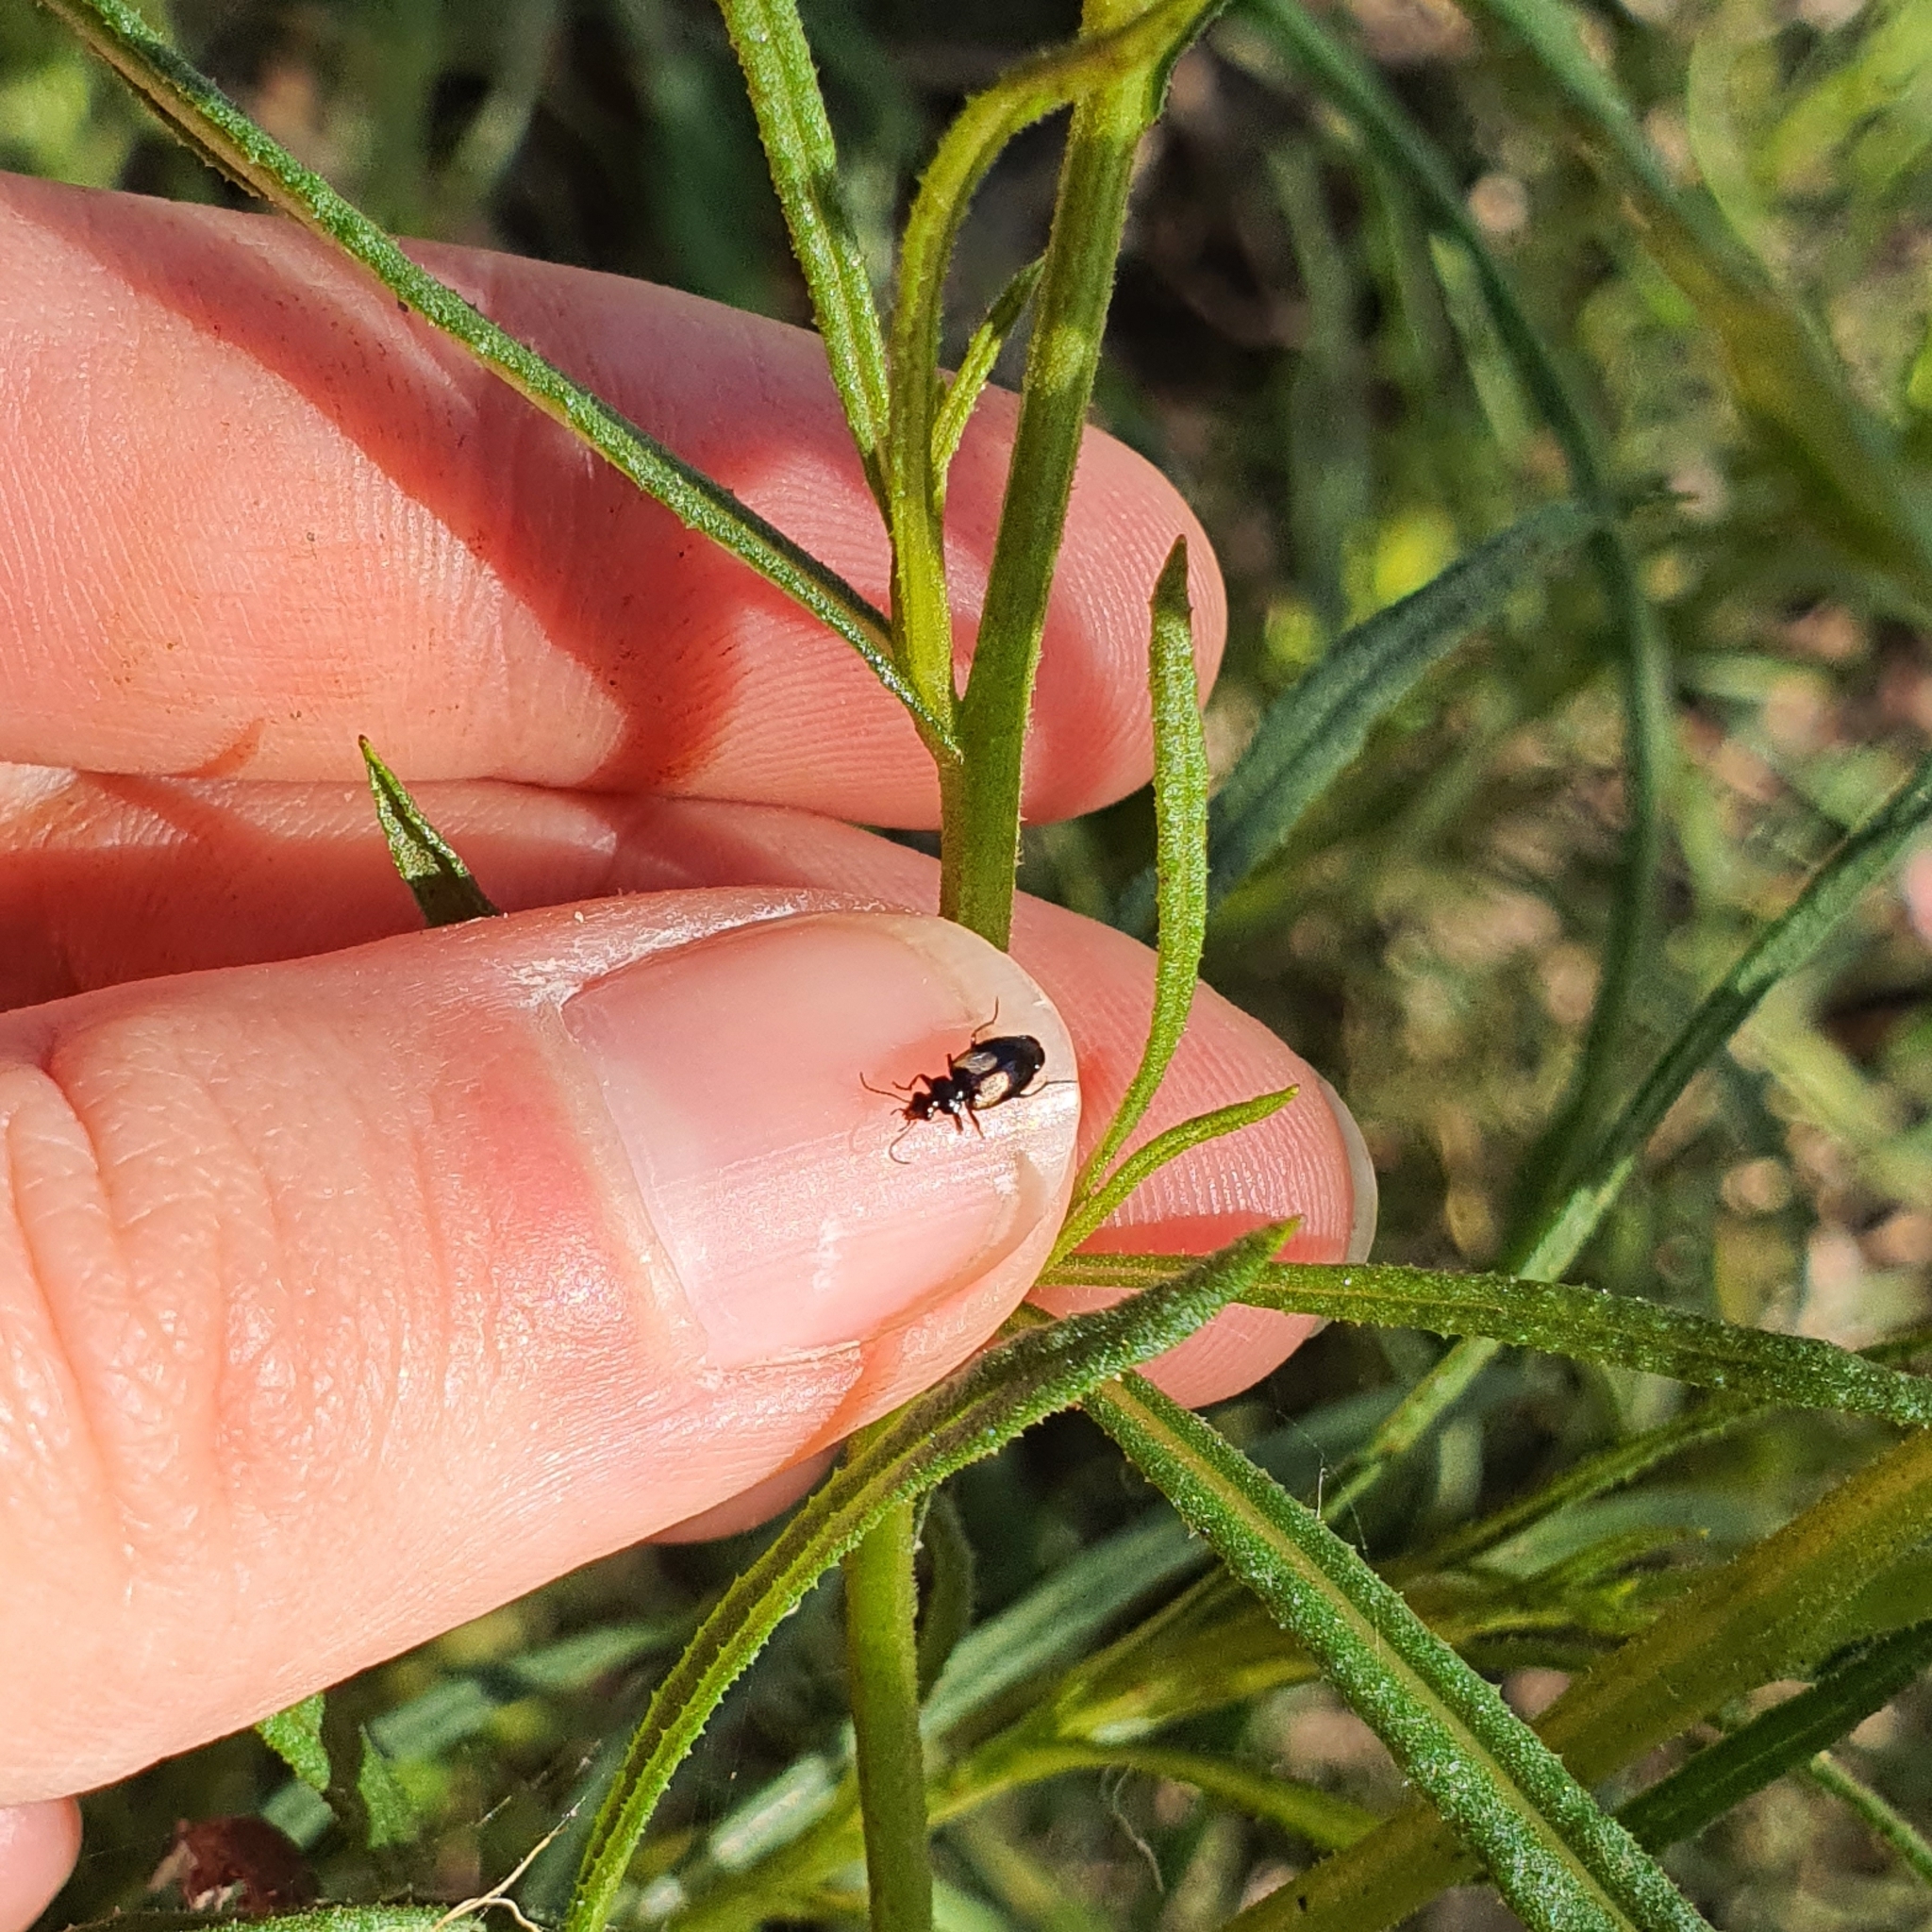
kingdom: Animalia
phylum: Arthropoda
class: Insecta
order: Coleoptera
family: Carabidae
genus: Sarothrocrepis
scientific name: Sarothrocrepis civica
